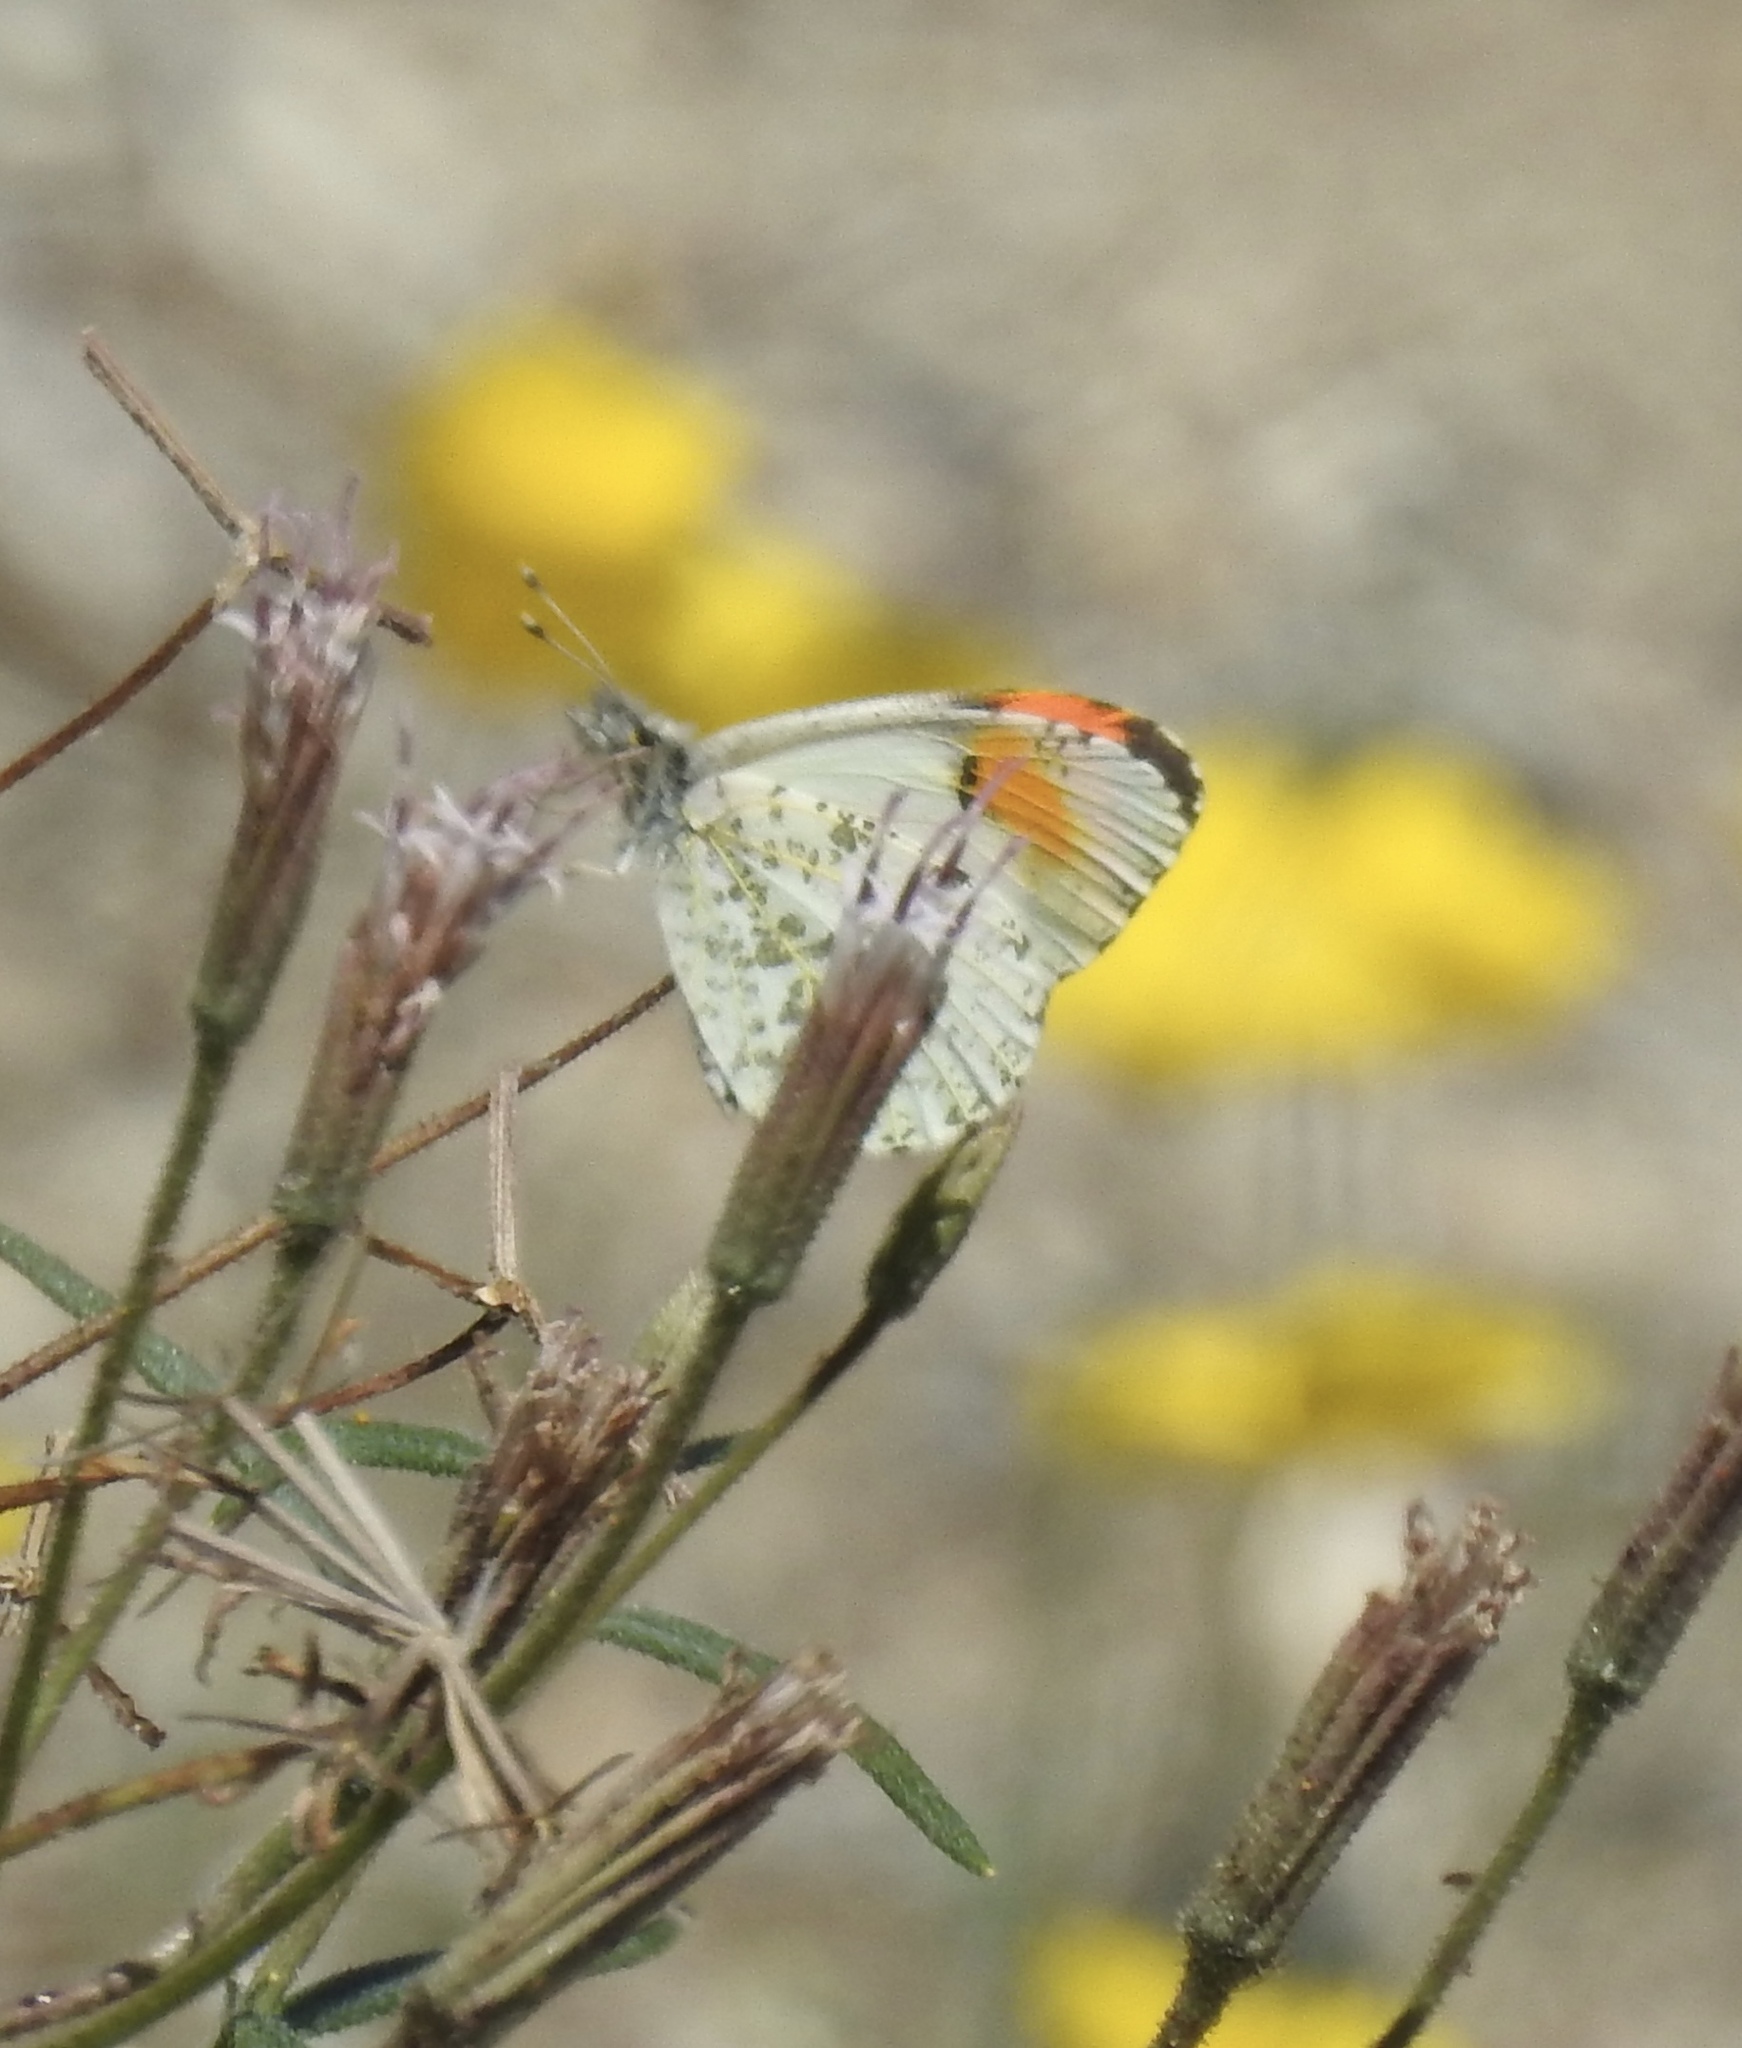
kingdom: Animalia
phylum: Arthropoda
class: Insecta
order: Lepidoptera
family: Pieridae
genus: Anthocharis
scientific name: Anthocharis sara
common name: Sara's orangetip
